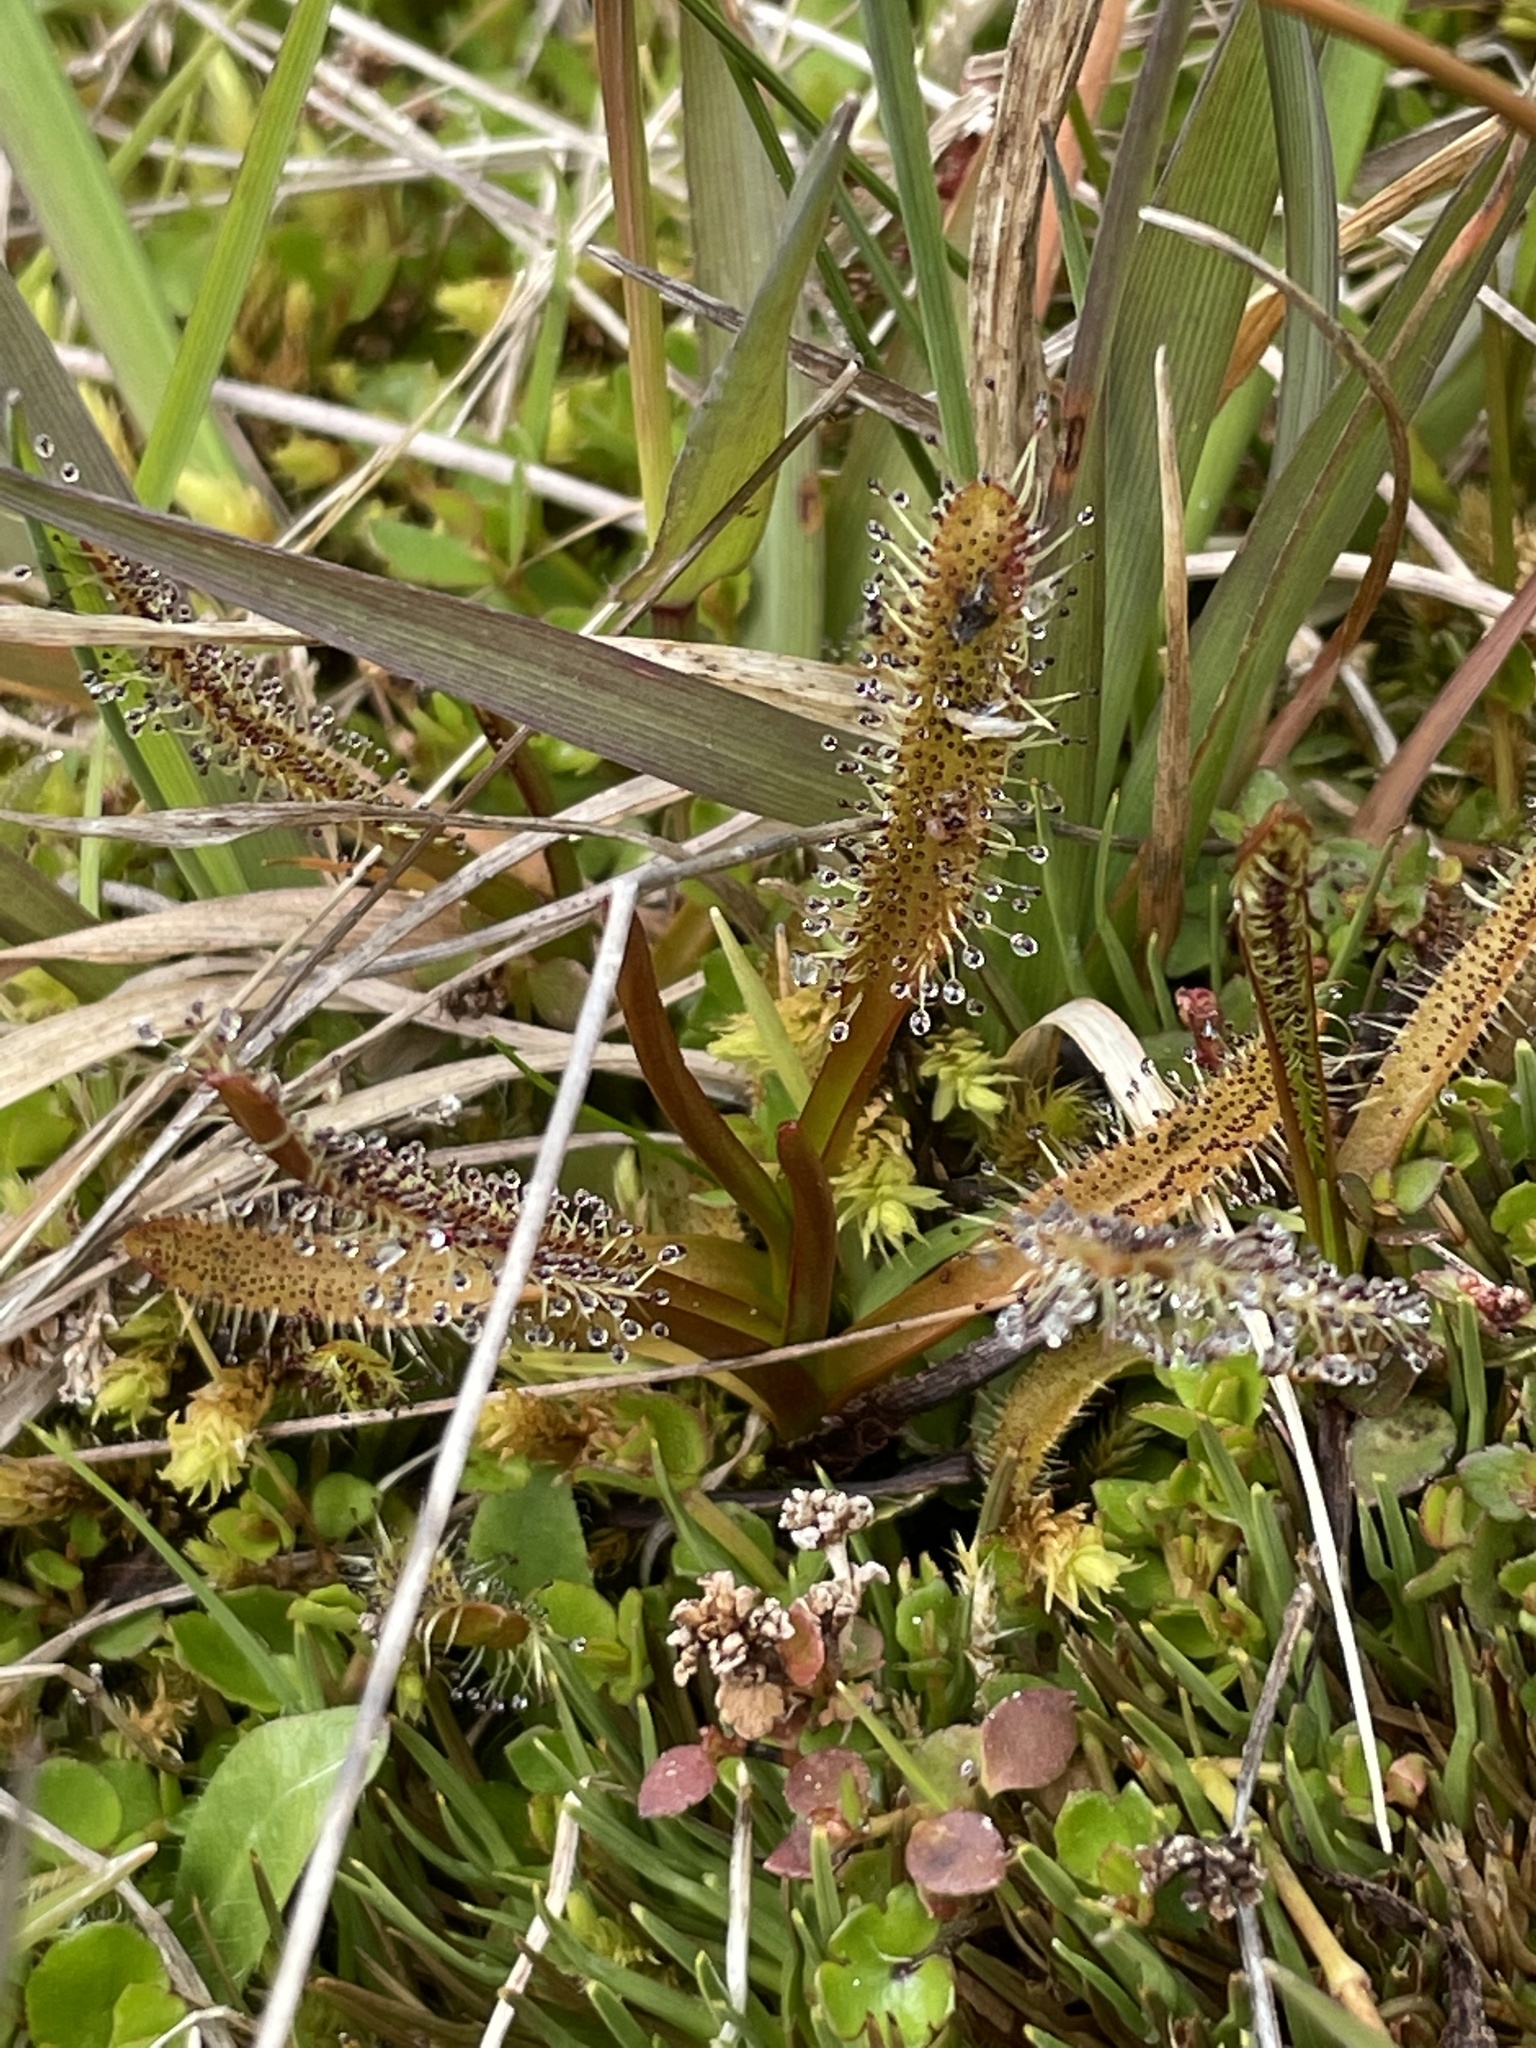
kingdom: Plantae
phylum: Tracheophyta
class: Magnoliopsida
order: Caryophyllales
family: Droseraceae
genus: Drosera
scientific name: Drosera arcturi
